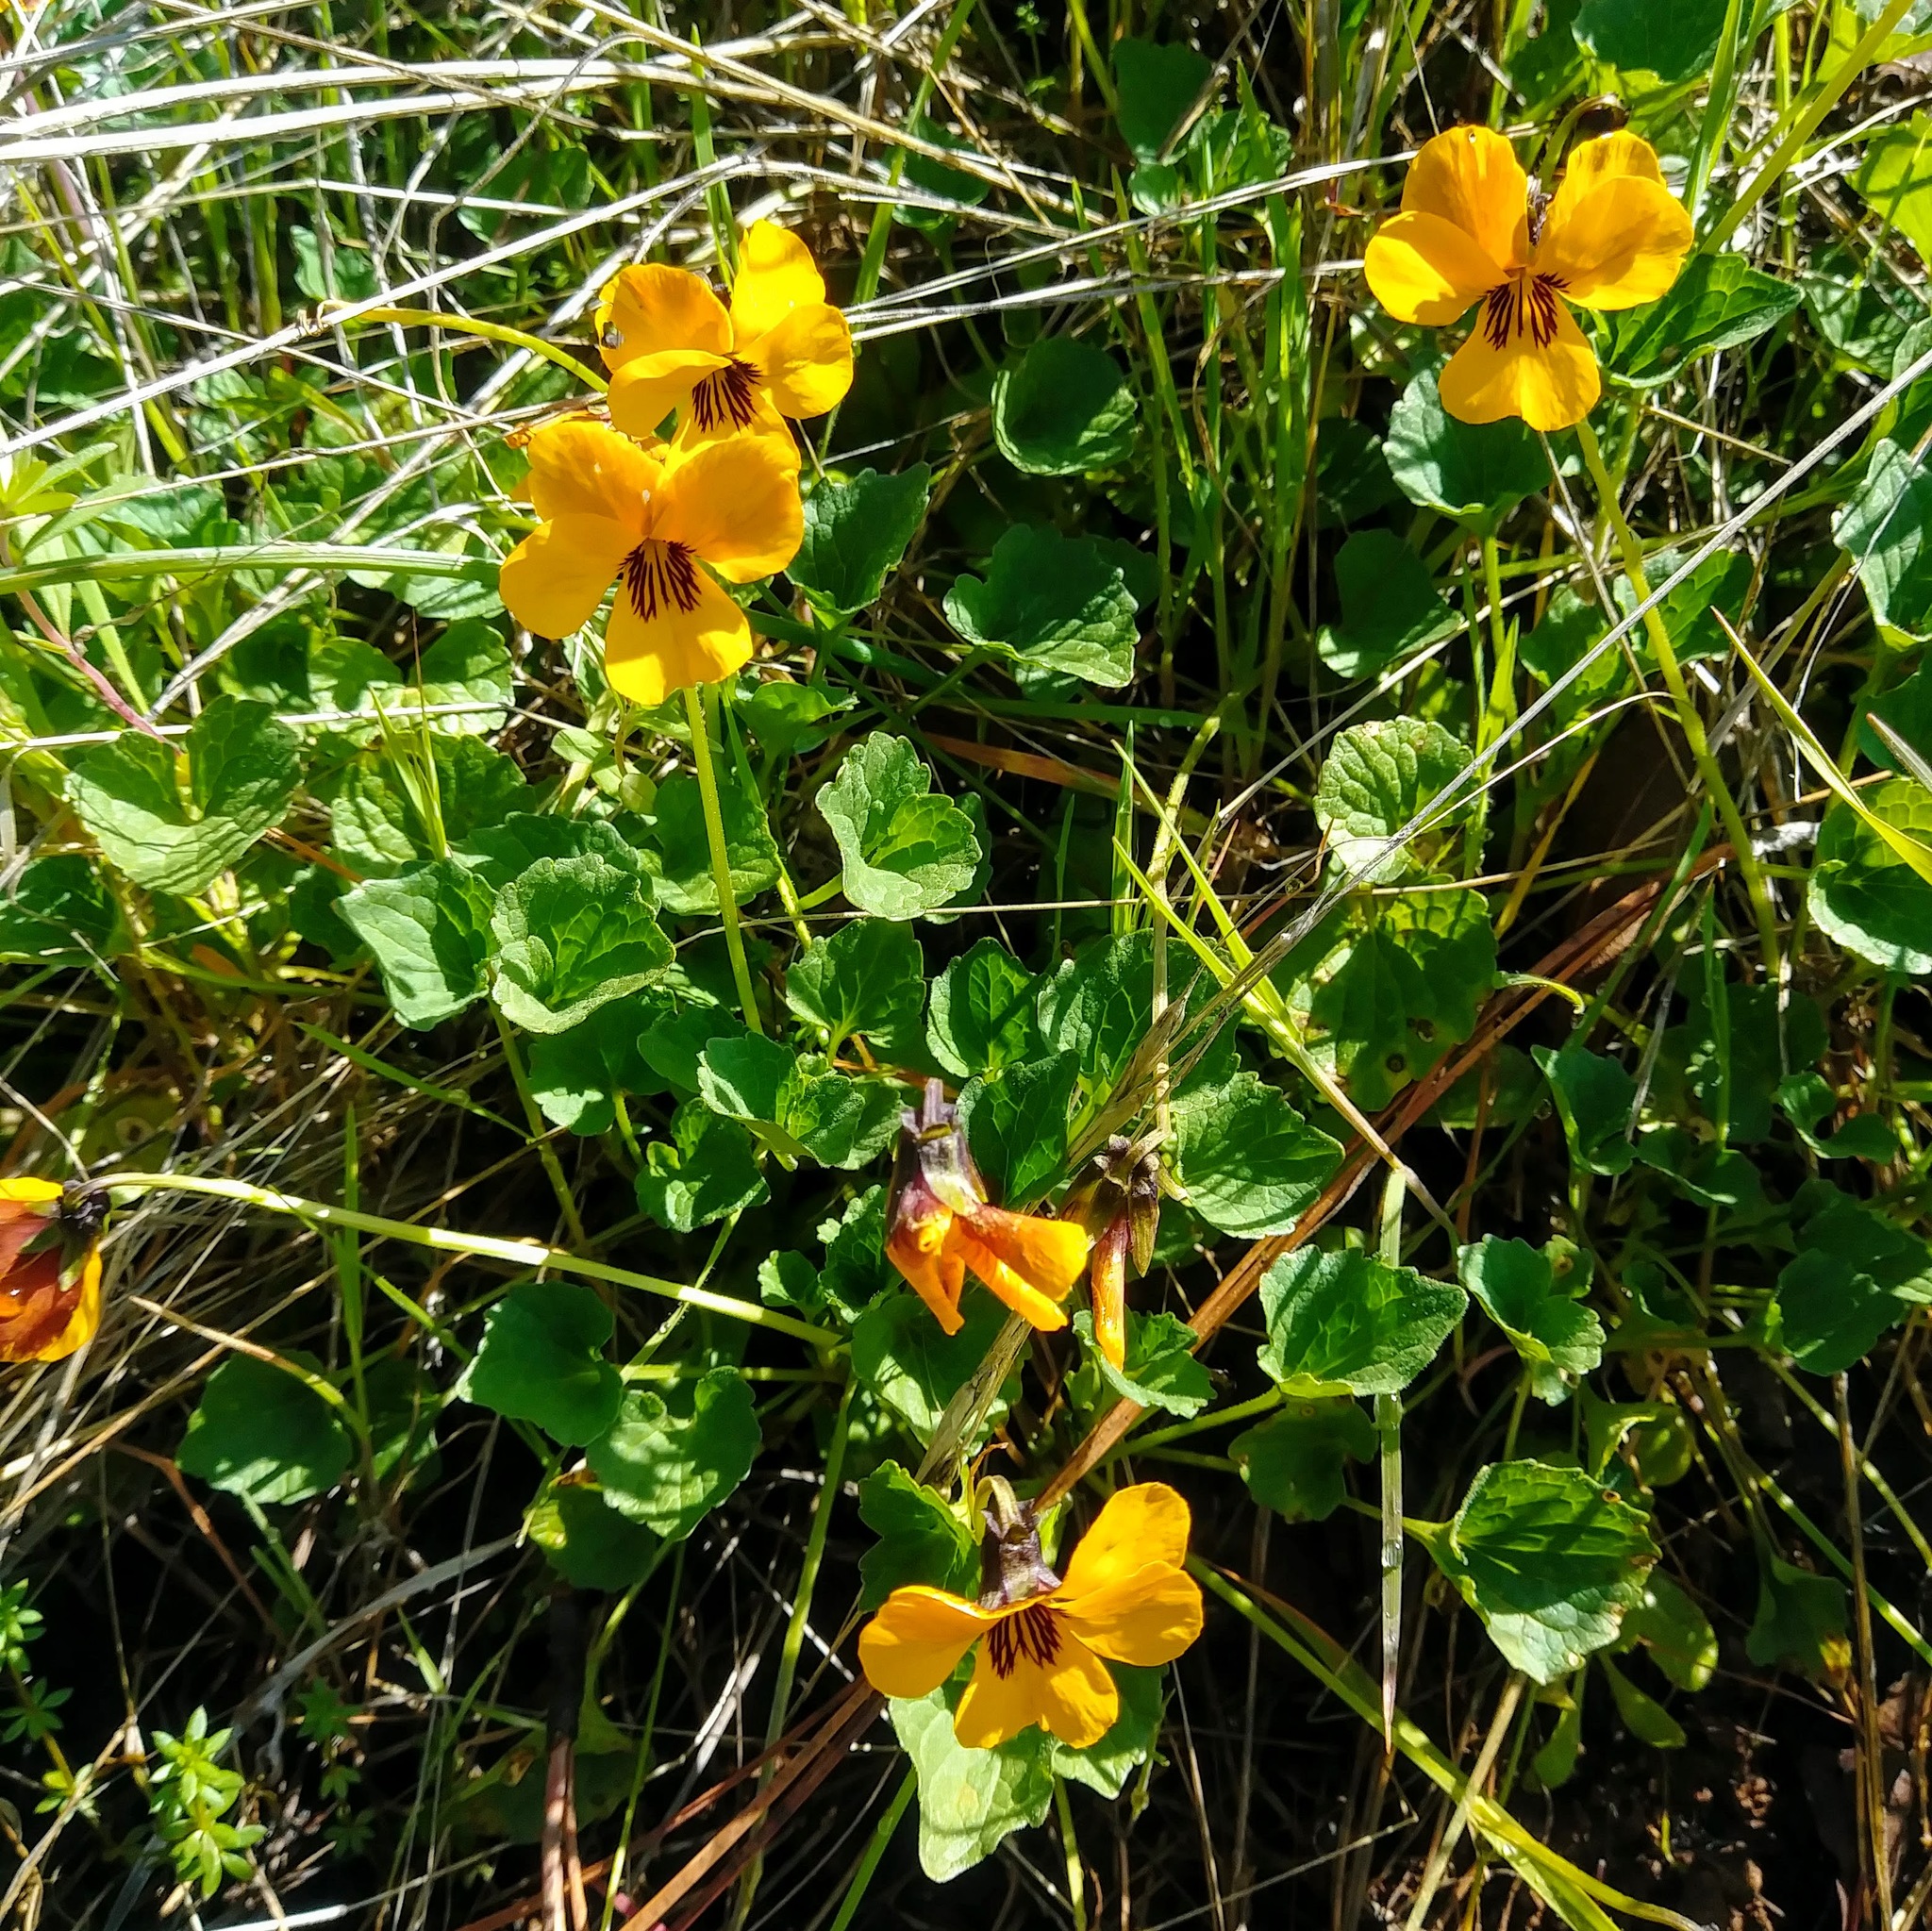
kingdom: Plantae
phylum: Tracheophyta
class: Magnoliopsida
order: Malpighiales
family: Violaceae
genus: Viola
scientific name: Viola pedunculata
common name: California golden violet
